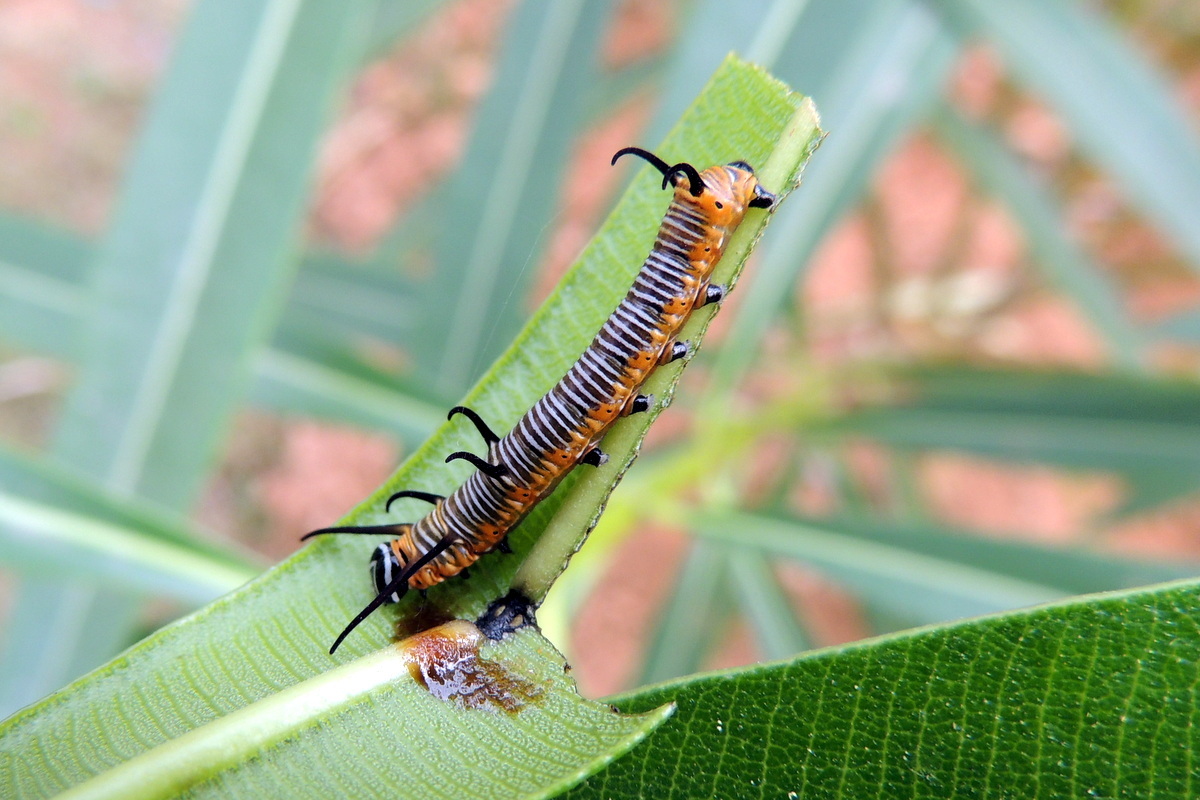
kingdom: Animalia
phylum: Arthropoda
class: Insecta
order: Lepidoptera
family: Nymphalidae
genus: Euploea
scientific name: Euploea core
